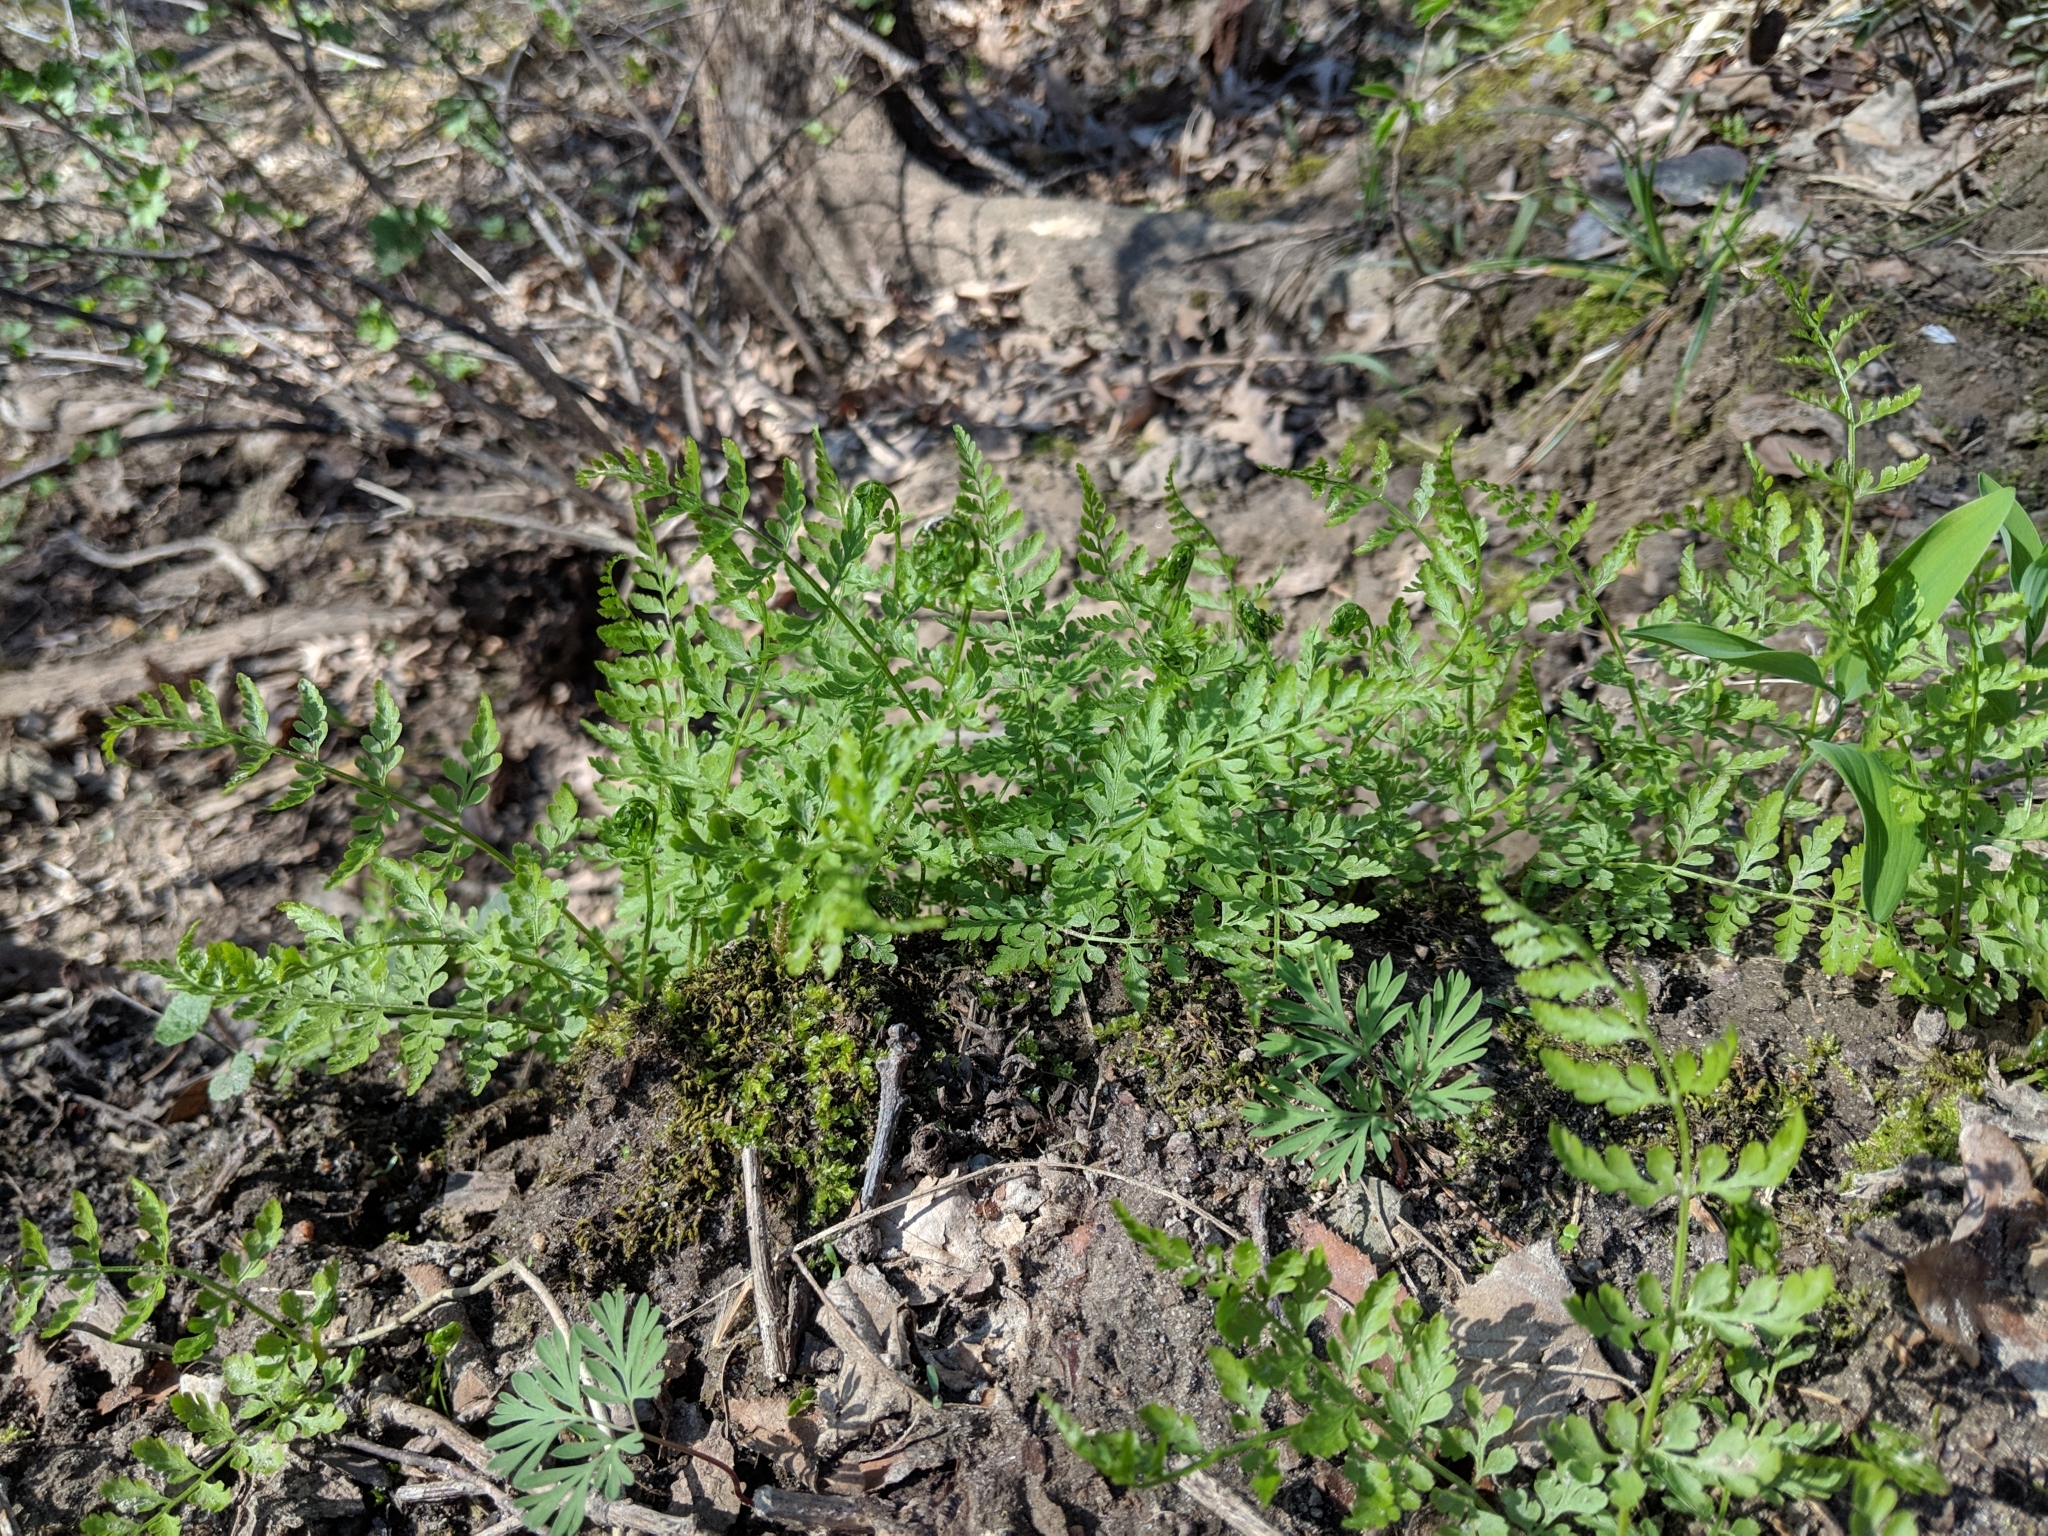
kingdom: Plantae
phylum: Tracheophyta
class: Polypodiopsida
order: Polypodiales
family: Cystopteridaceae
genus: Cystopteris
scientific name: Cystopteris protrusa
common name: Lowland brittle fern
